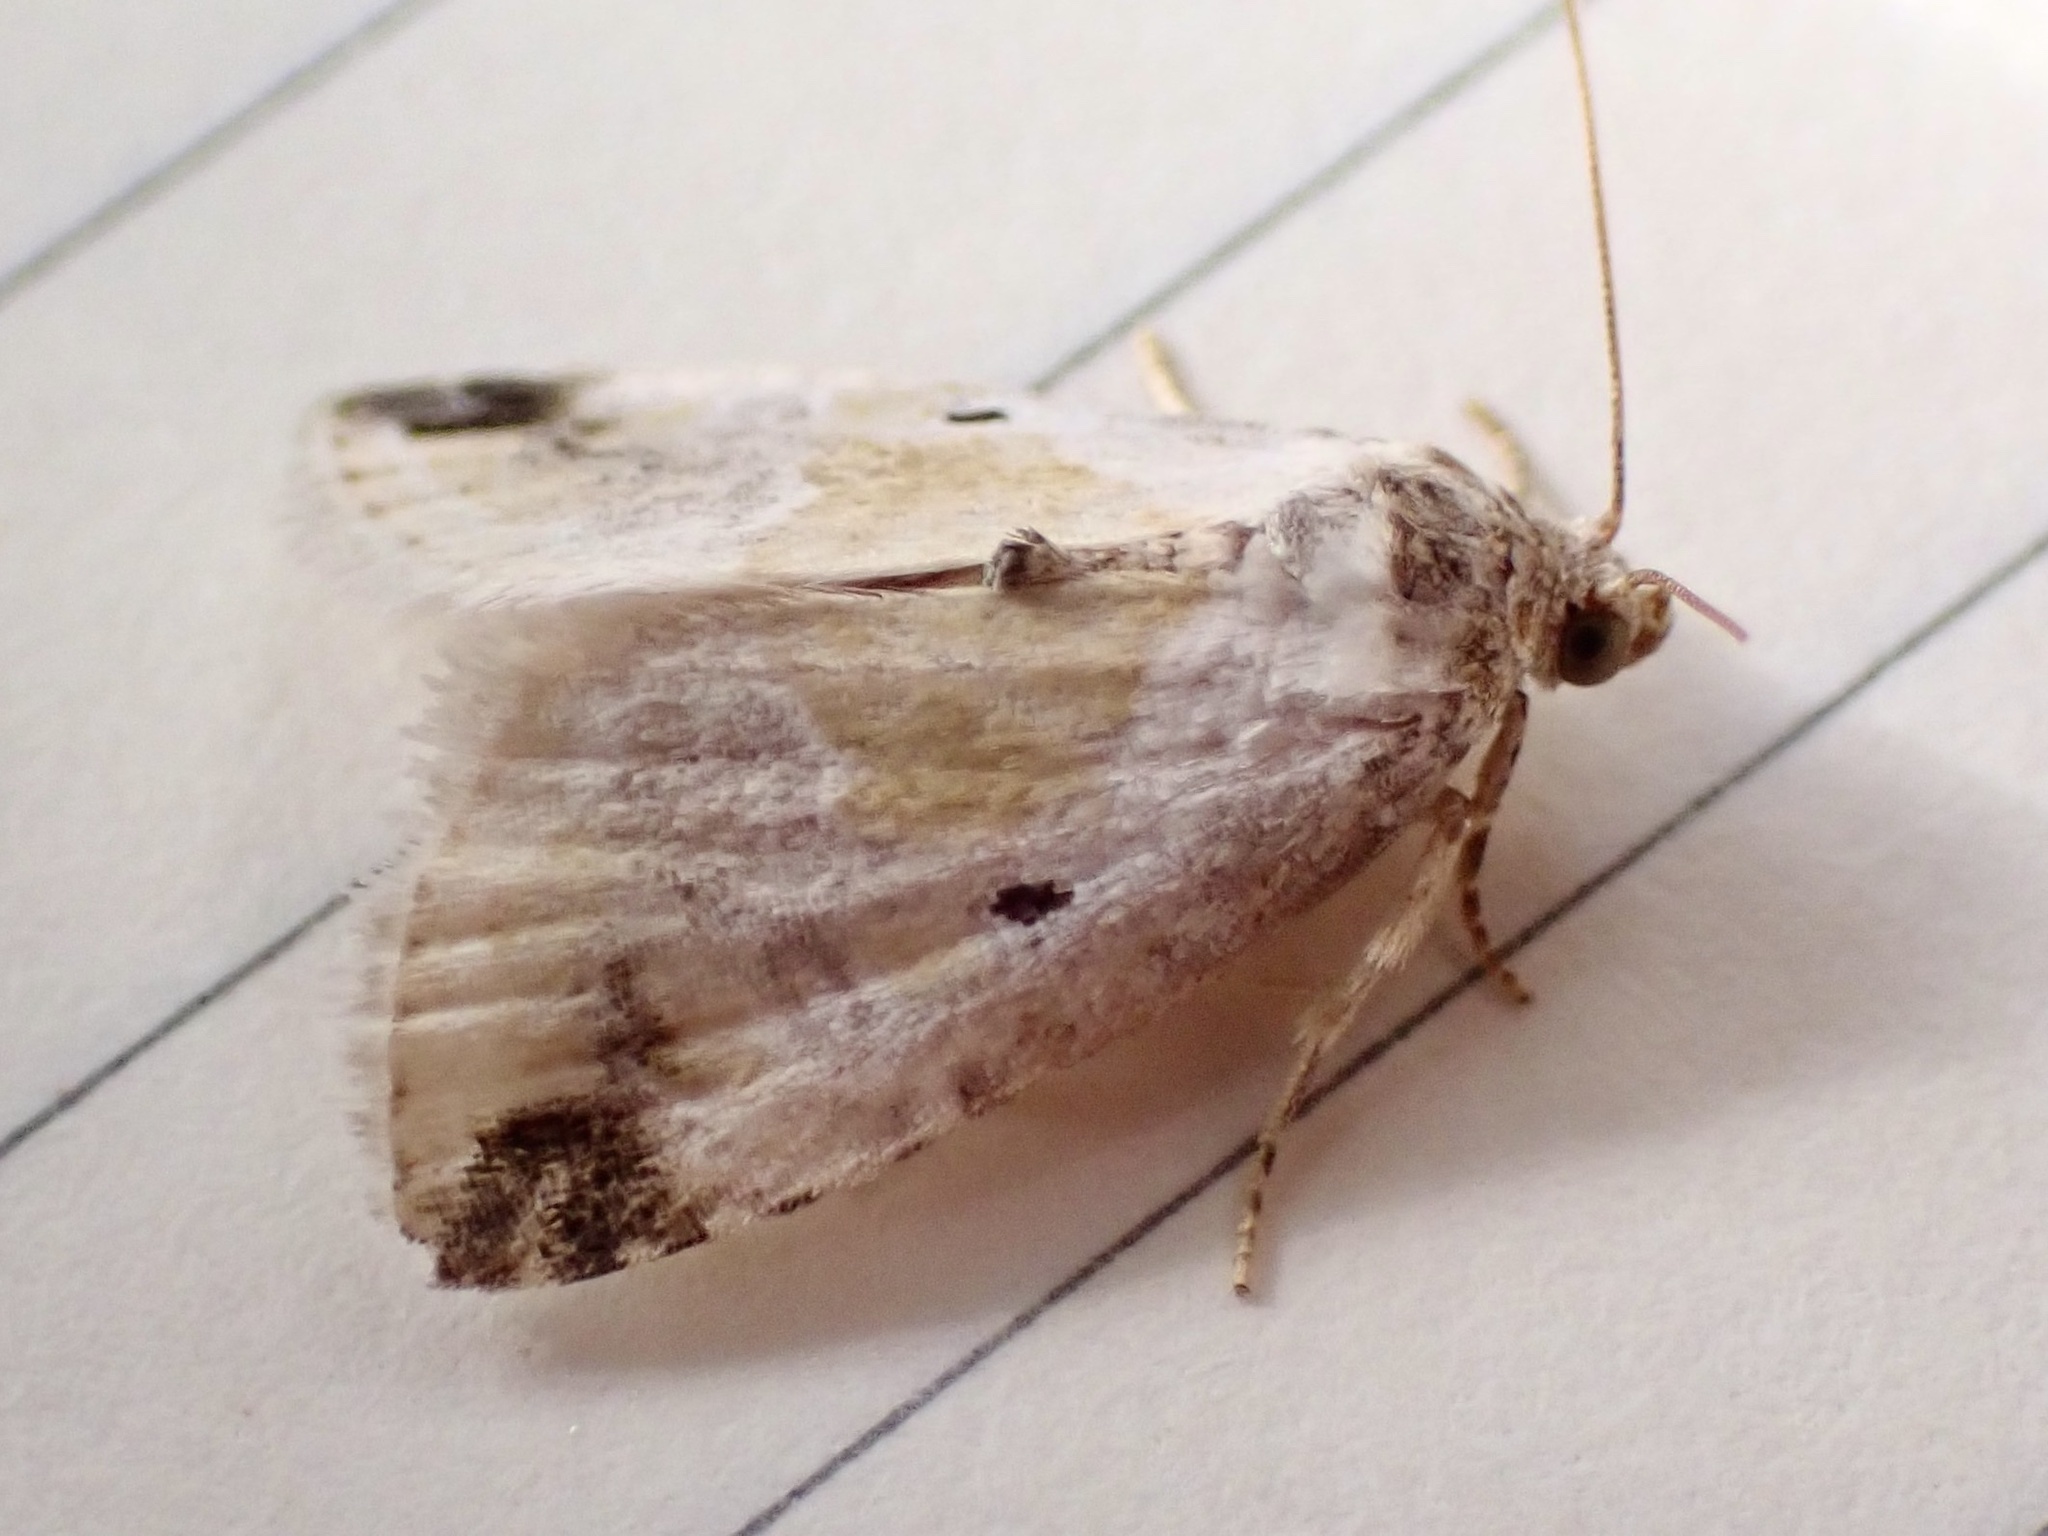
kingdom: Animalia
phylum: Arthropoda
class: Insecta
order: Lepidoptera
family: Noctuidae
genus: Maliattha
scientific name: Maliattha synochitis
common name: Black-dotted glyph
